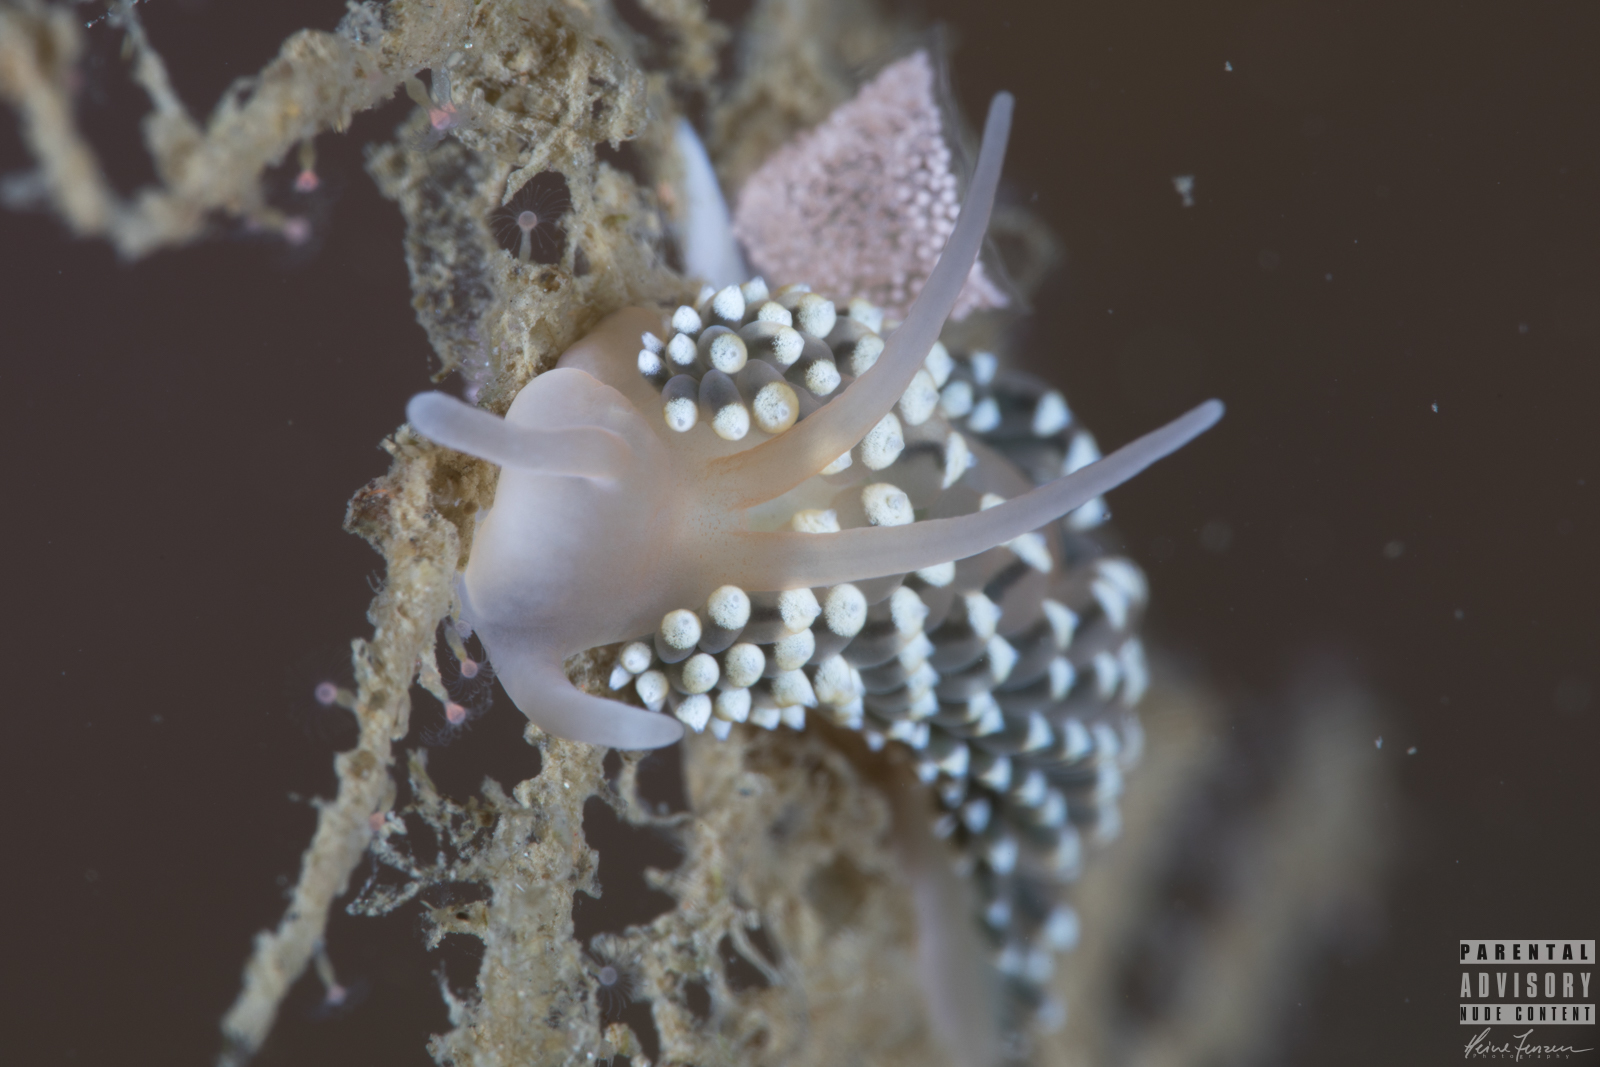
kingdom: Animalia
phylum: Mollusca
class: Gastropoda
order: Nudibranchia
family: Eubranchidae
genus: Eubranchus
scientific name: Eubranchus tricolor
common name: Painted balloon aeolis
